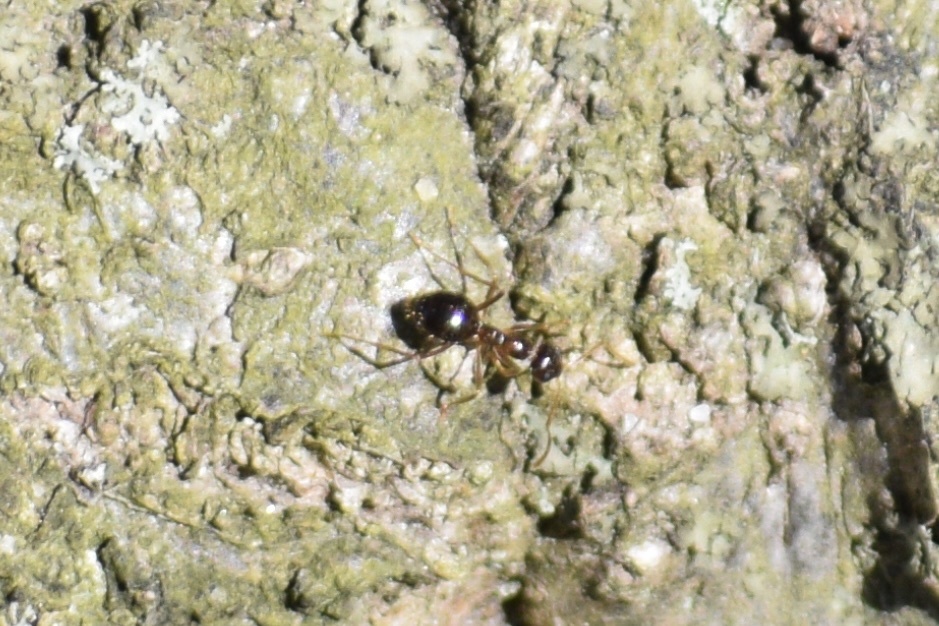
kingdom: Animalia
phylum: Arthropoda
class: Insecta
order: Hymenoptera
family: Formicidae
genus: Prenolepis
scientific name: Prenolepis imparis
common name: Small honey ant
